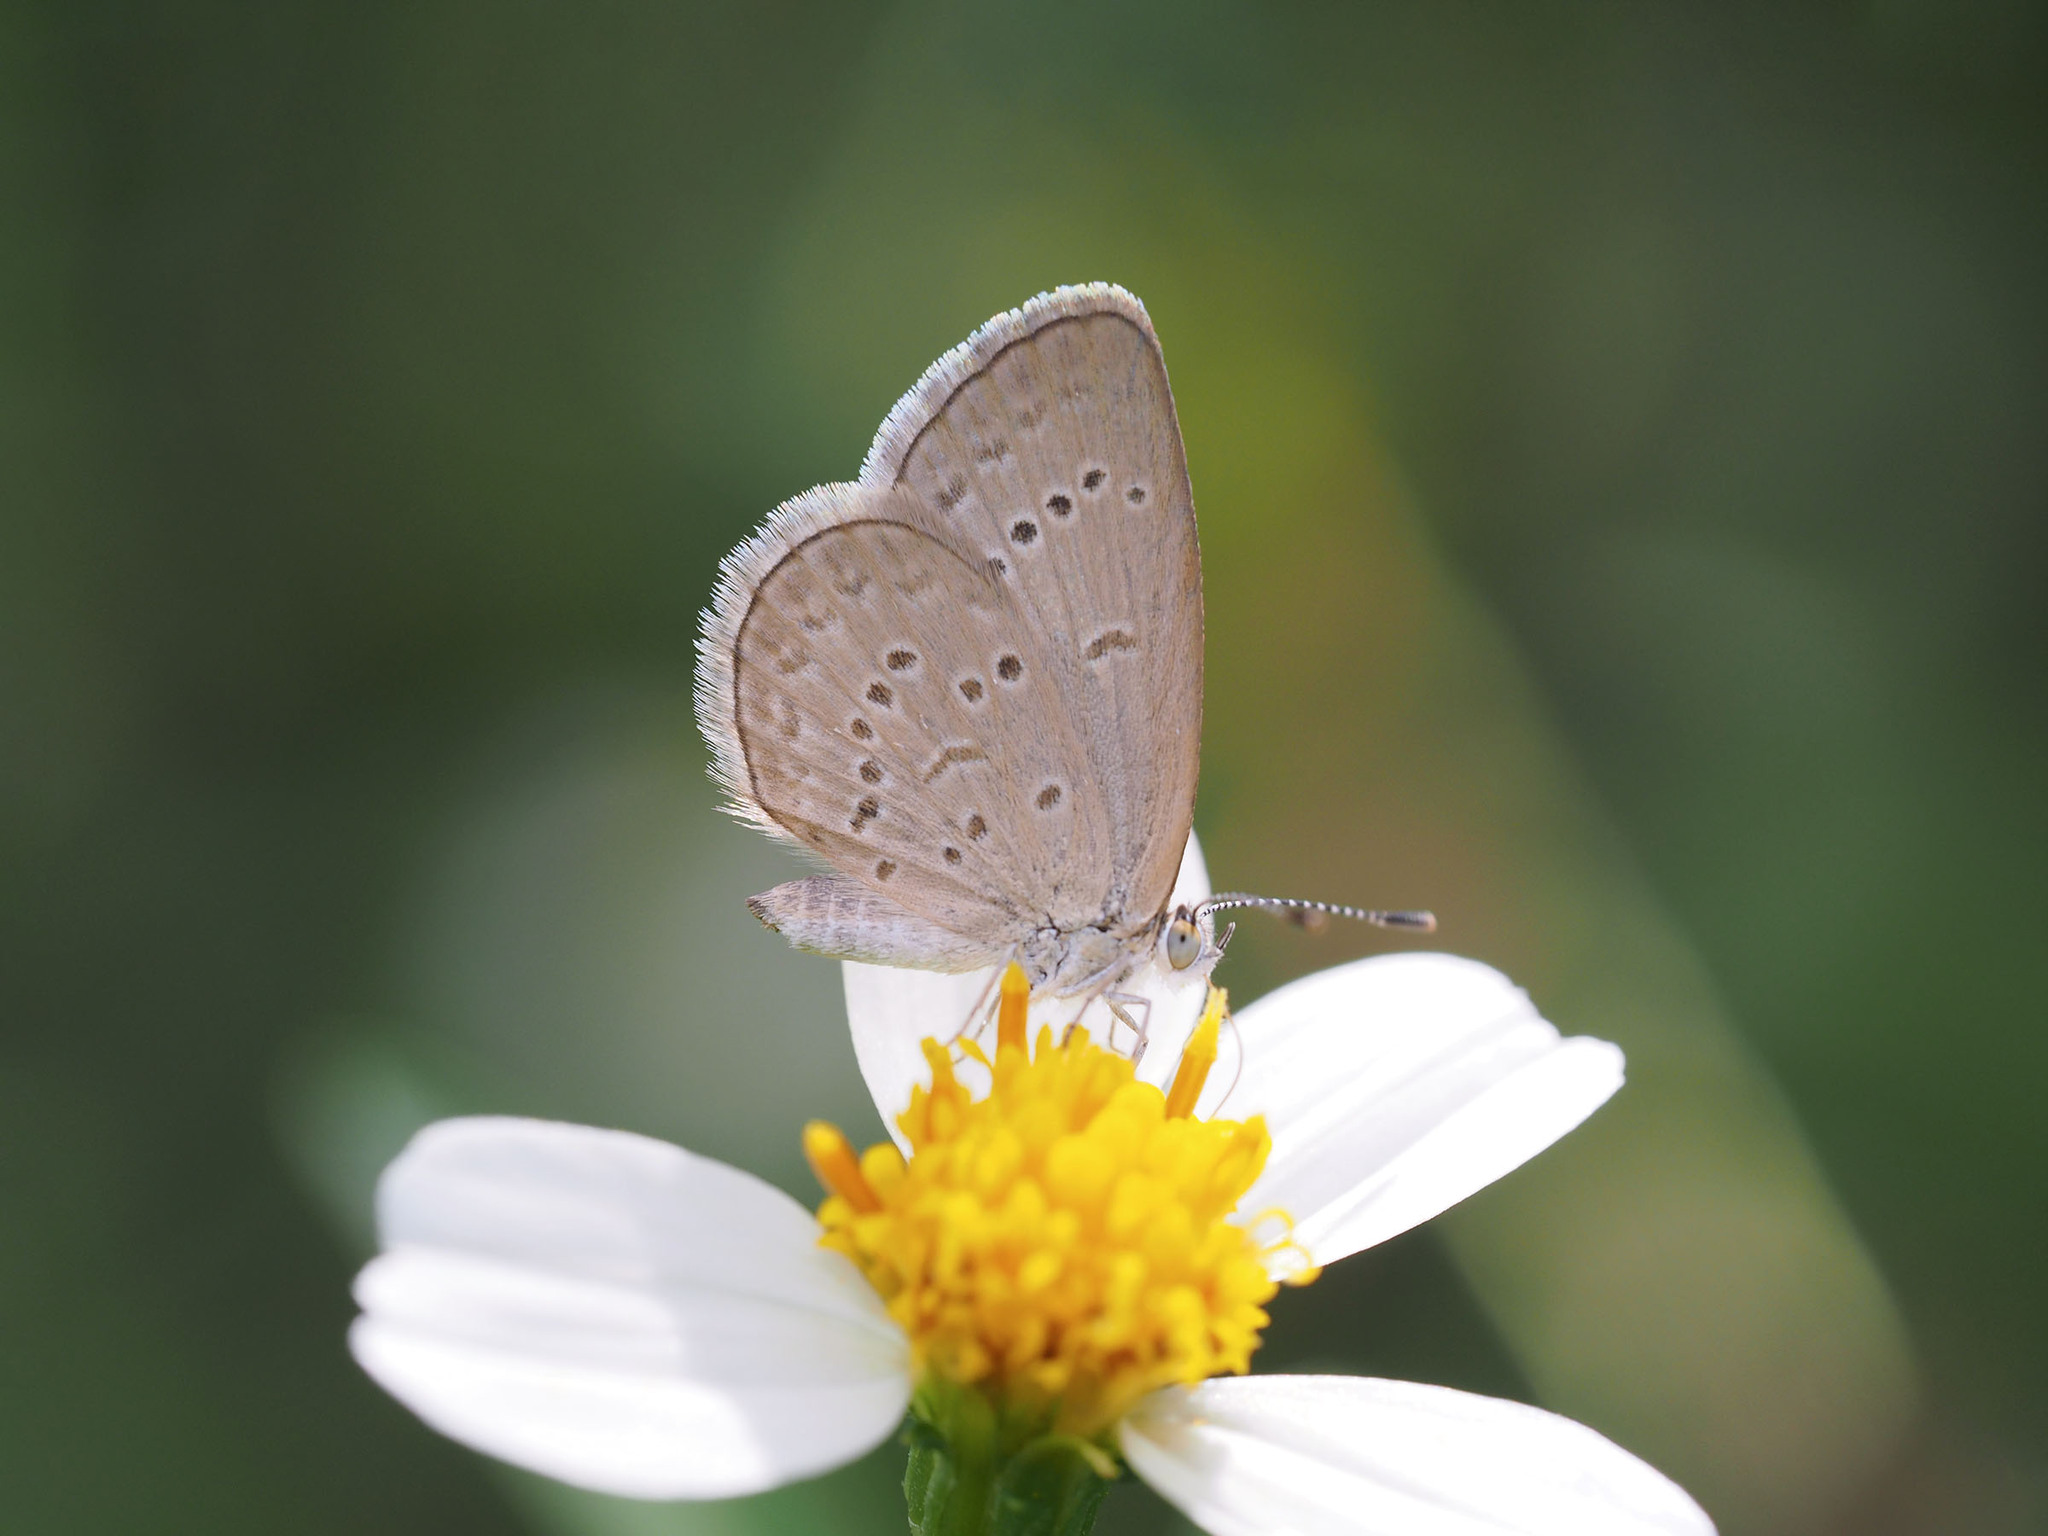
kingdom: Animalia
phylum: Arthropoda
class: Insecta
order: Lepidoptera
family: Lycaenidae
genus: Zizina
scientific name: Zizina otis
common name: Lesser grass blue
